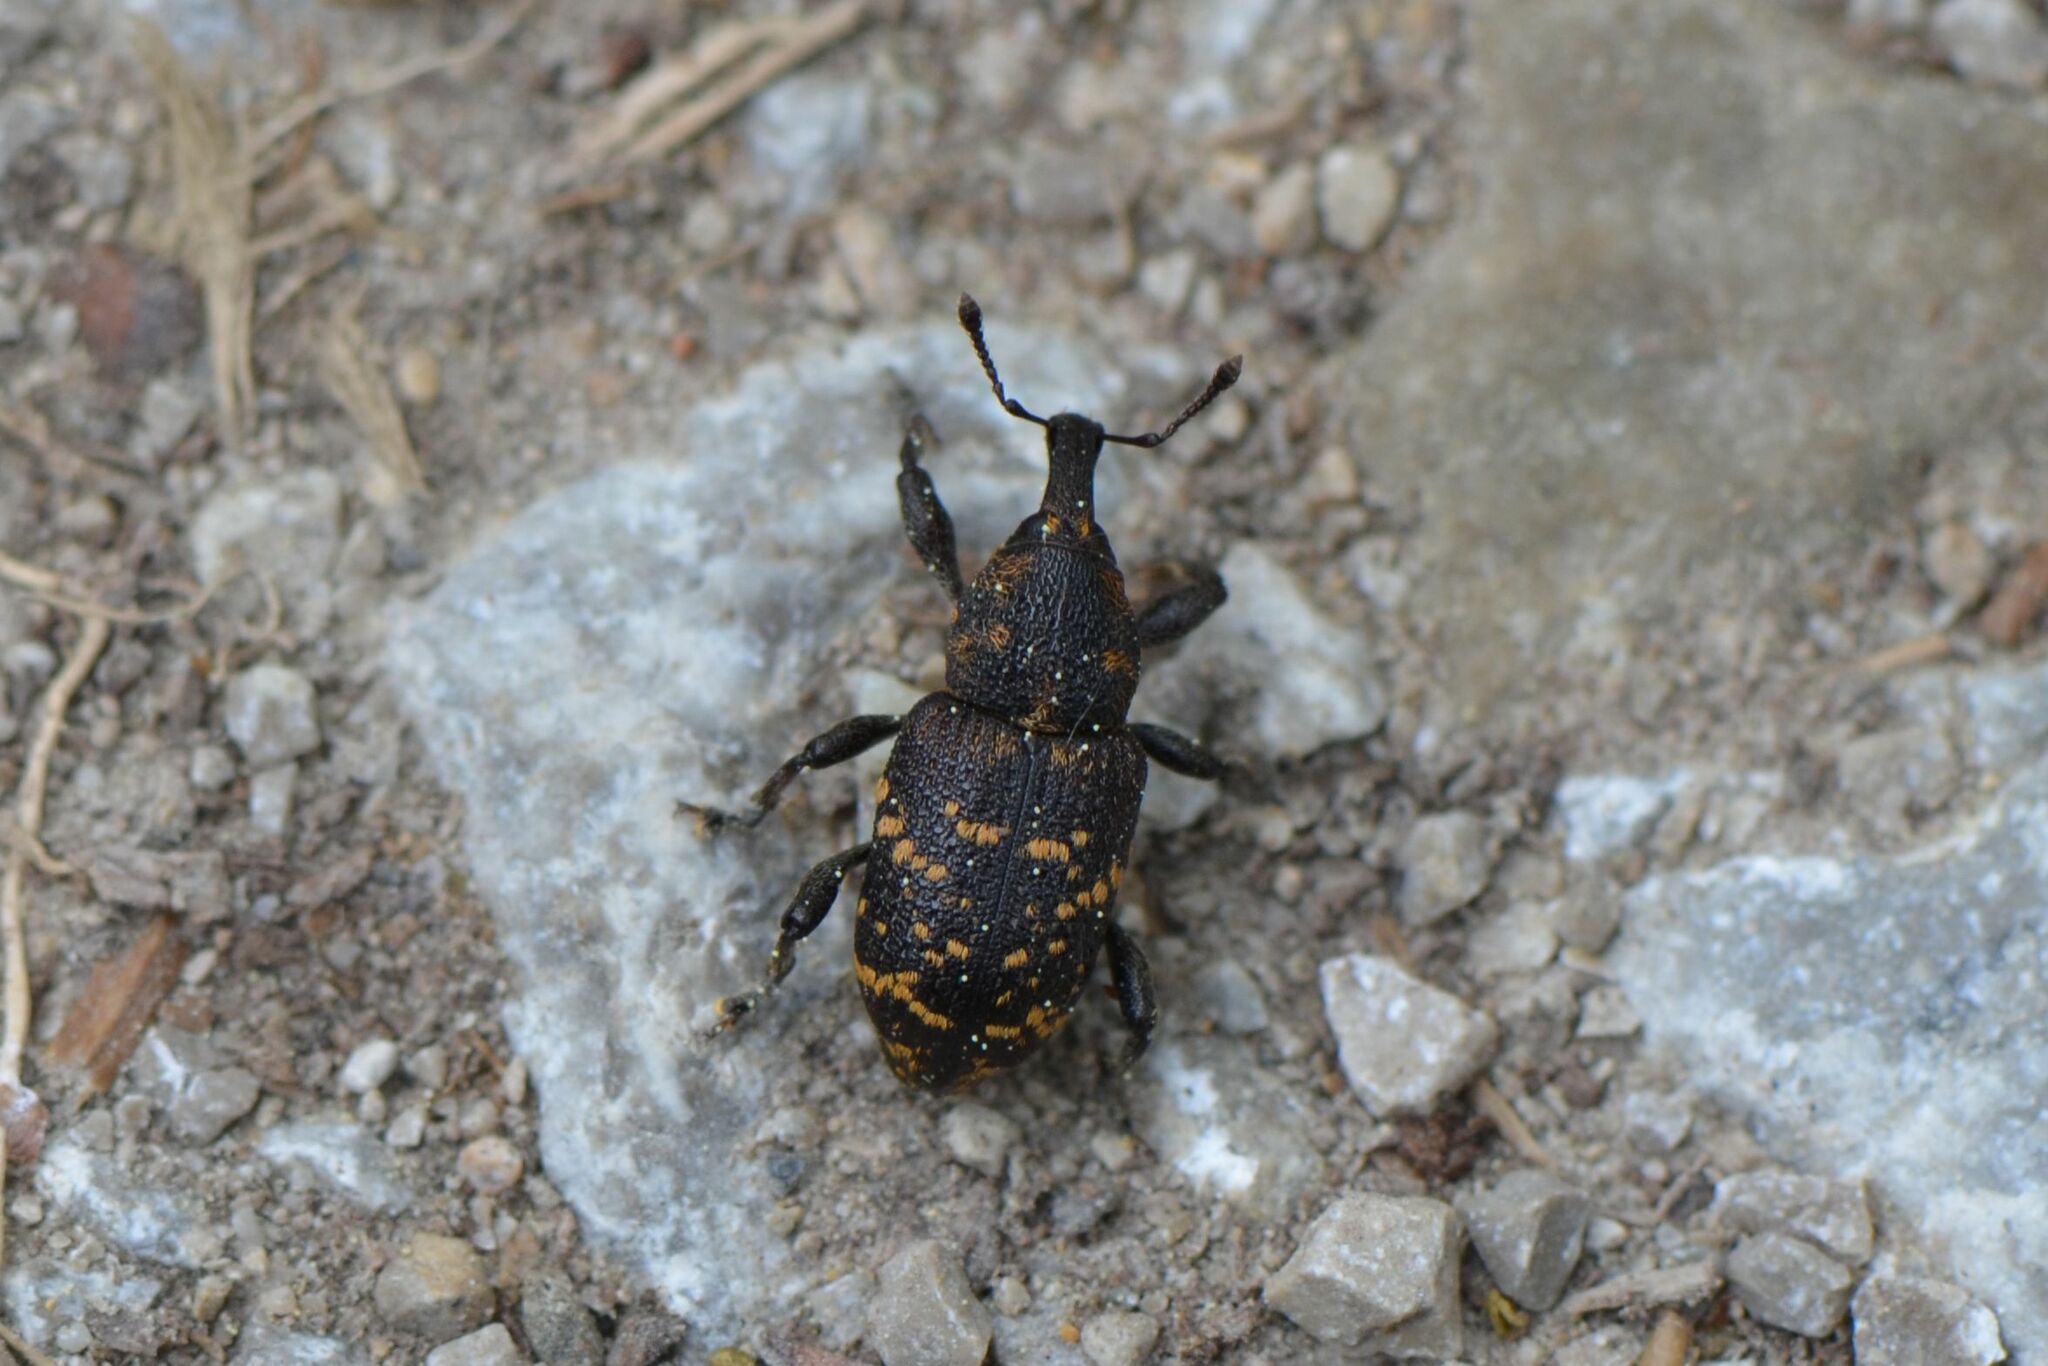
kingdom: Animalia
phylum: Arthropoda
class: Insecta
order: Coleoptera
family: Curculionidae
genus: Hylobius
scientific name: Hylobius abietis
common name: Large pine weevil
